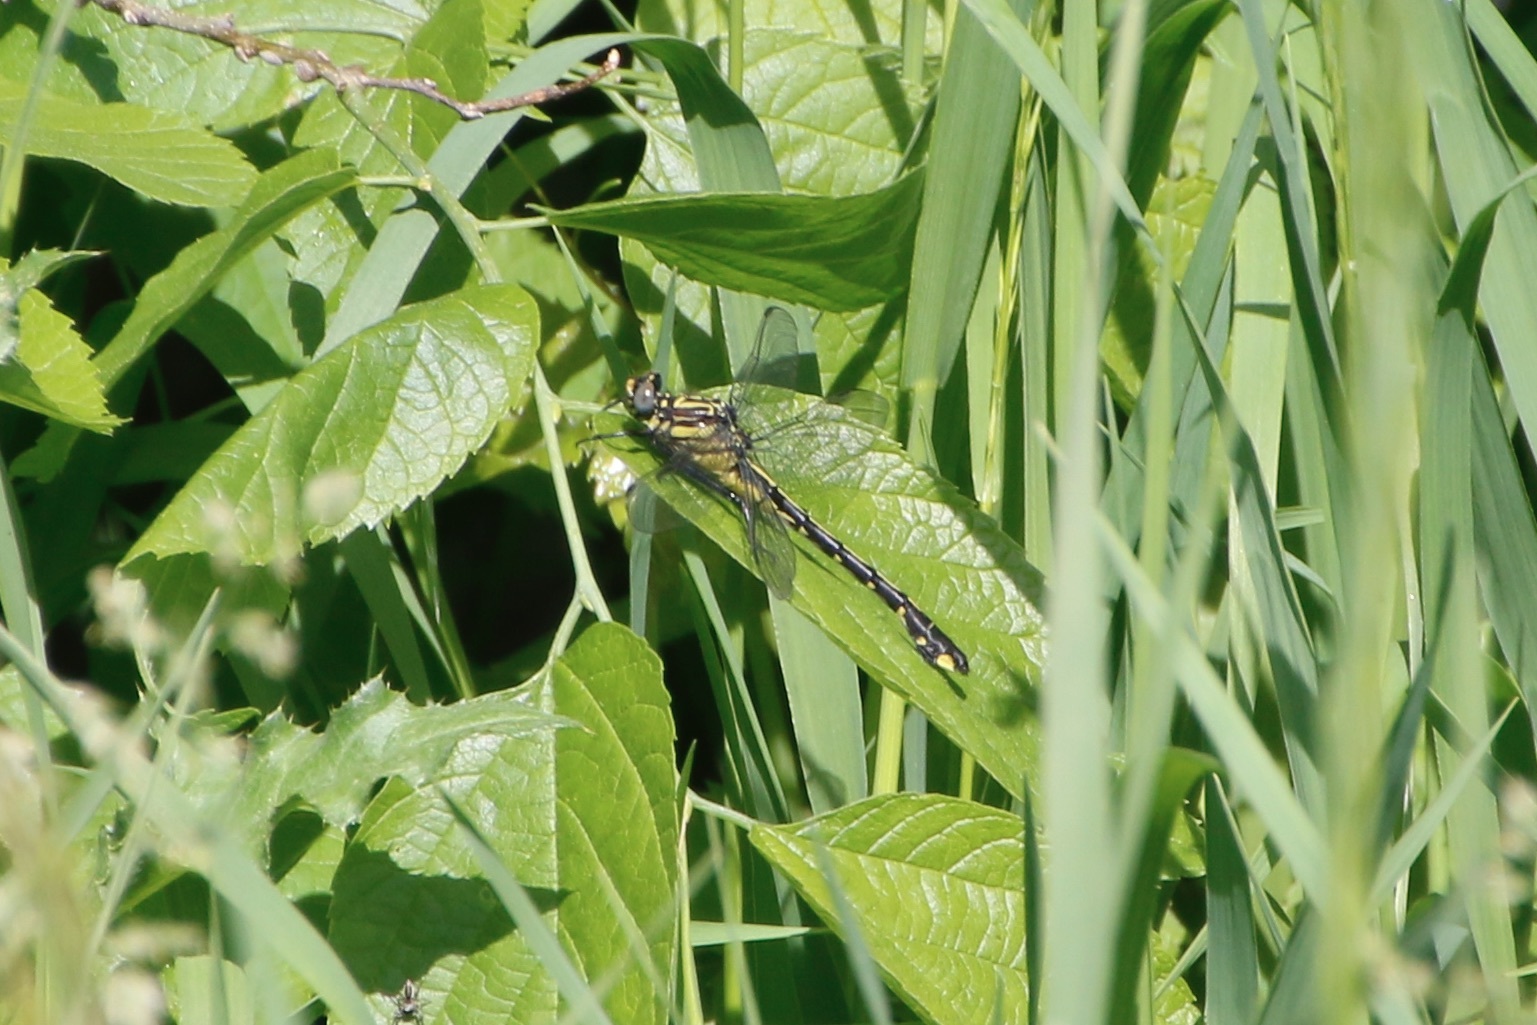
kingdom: Animalia
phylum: Arthropoda
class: Insecta
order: Odonata
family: Gomphidae
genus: Gomphurus
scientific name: Gomphurus vastus
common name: Cobra clubtail
